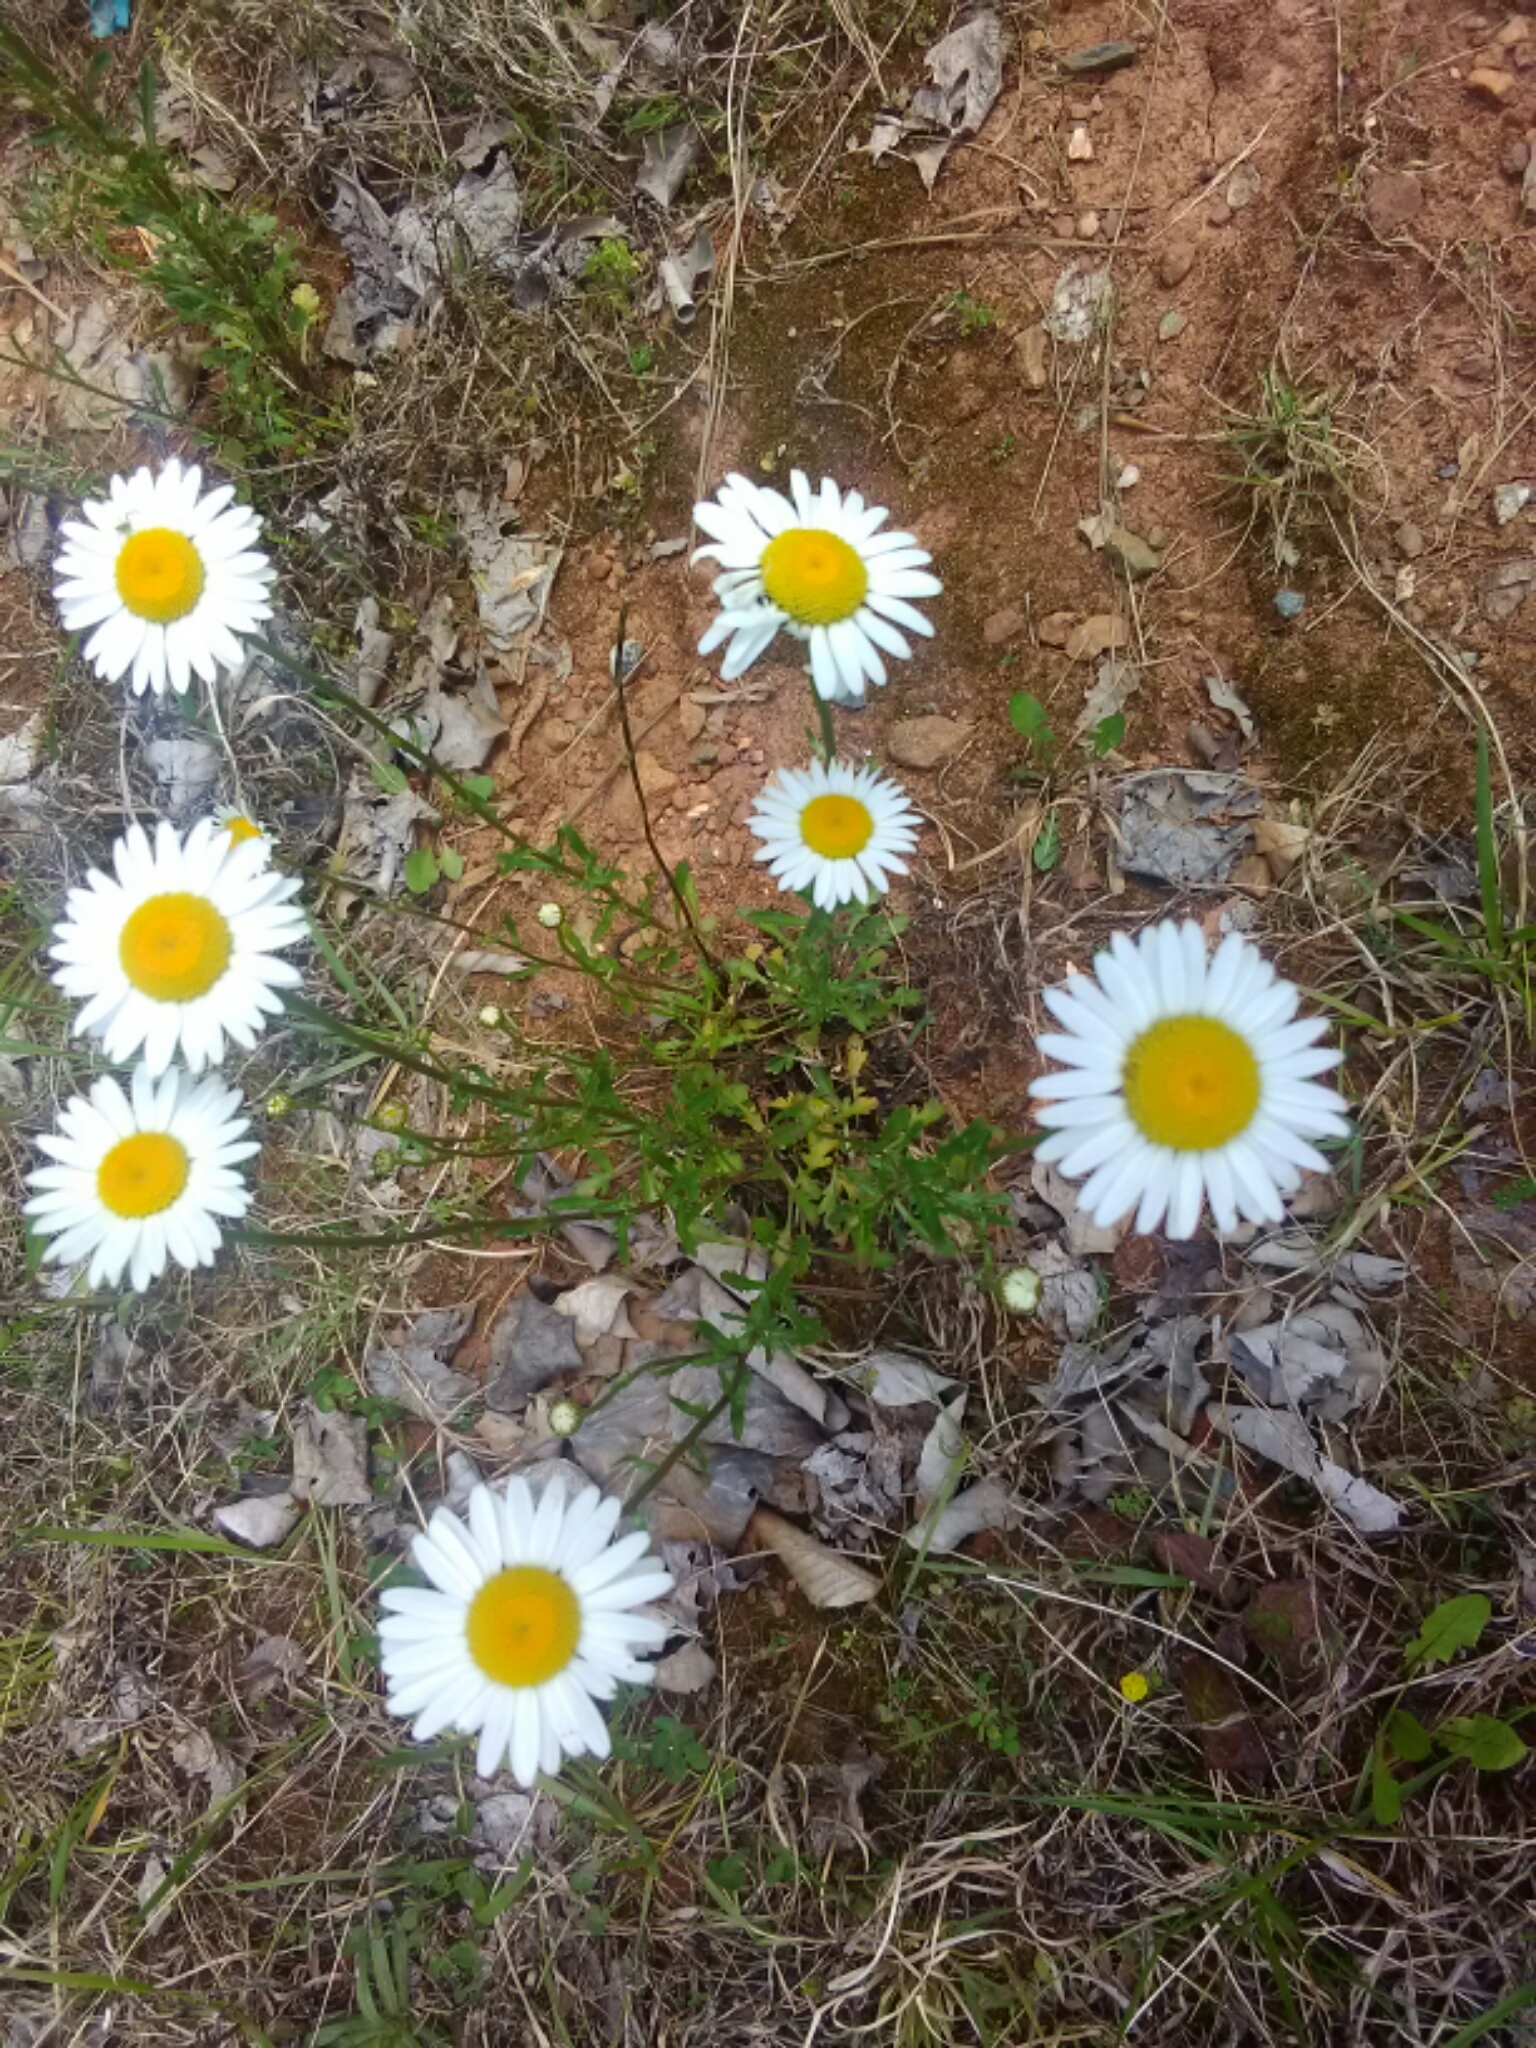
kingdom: Plantae
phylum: Tracheophyta
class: Magnoliopsida
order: Asterales
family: Asteraceae
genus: Leucanthemum
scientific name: Leucanthemum vulgare
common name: Oxeye daisy
